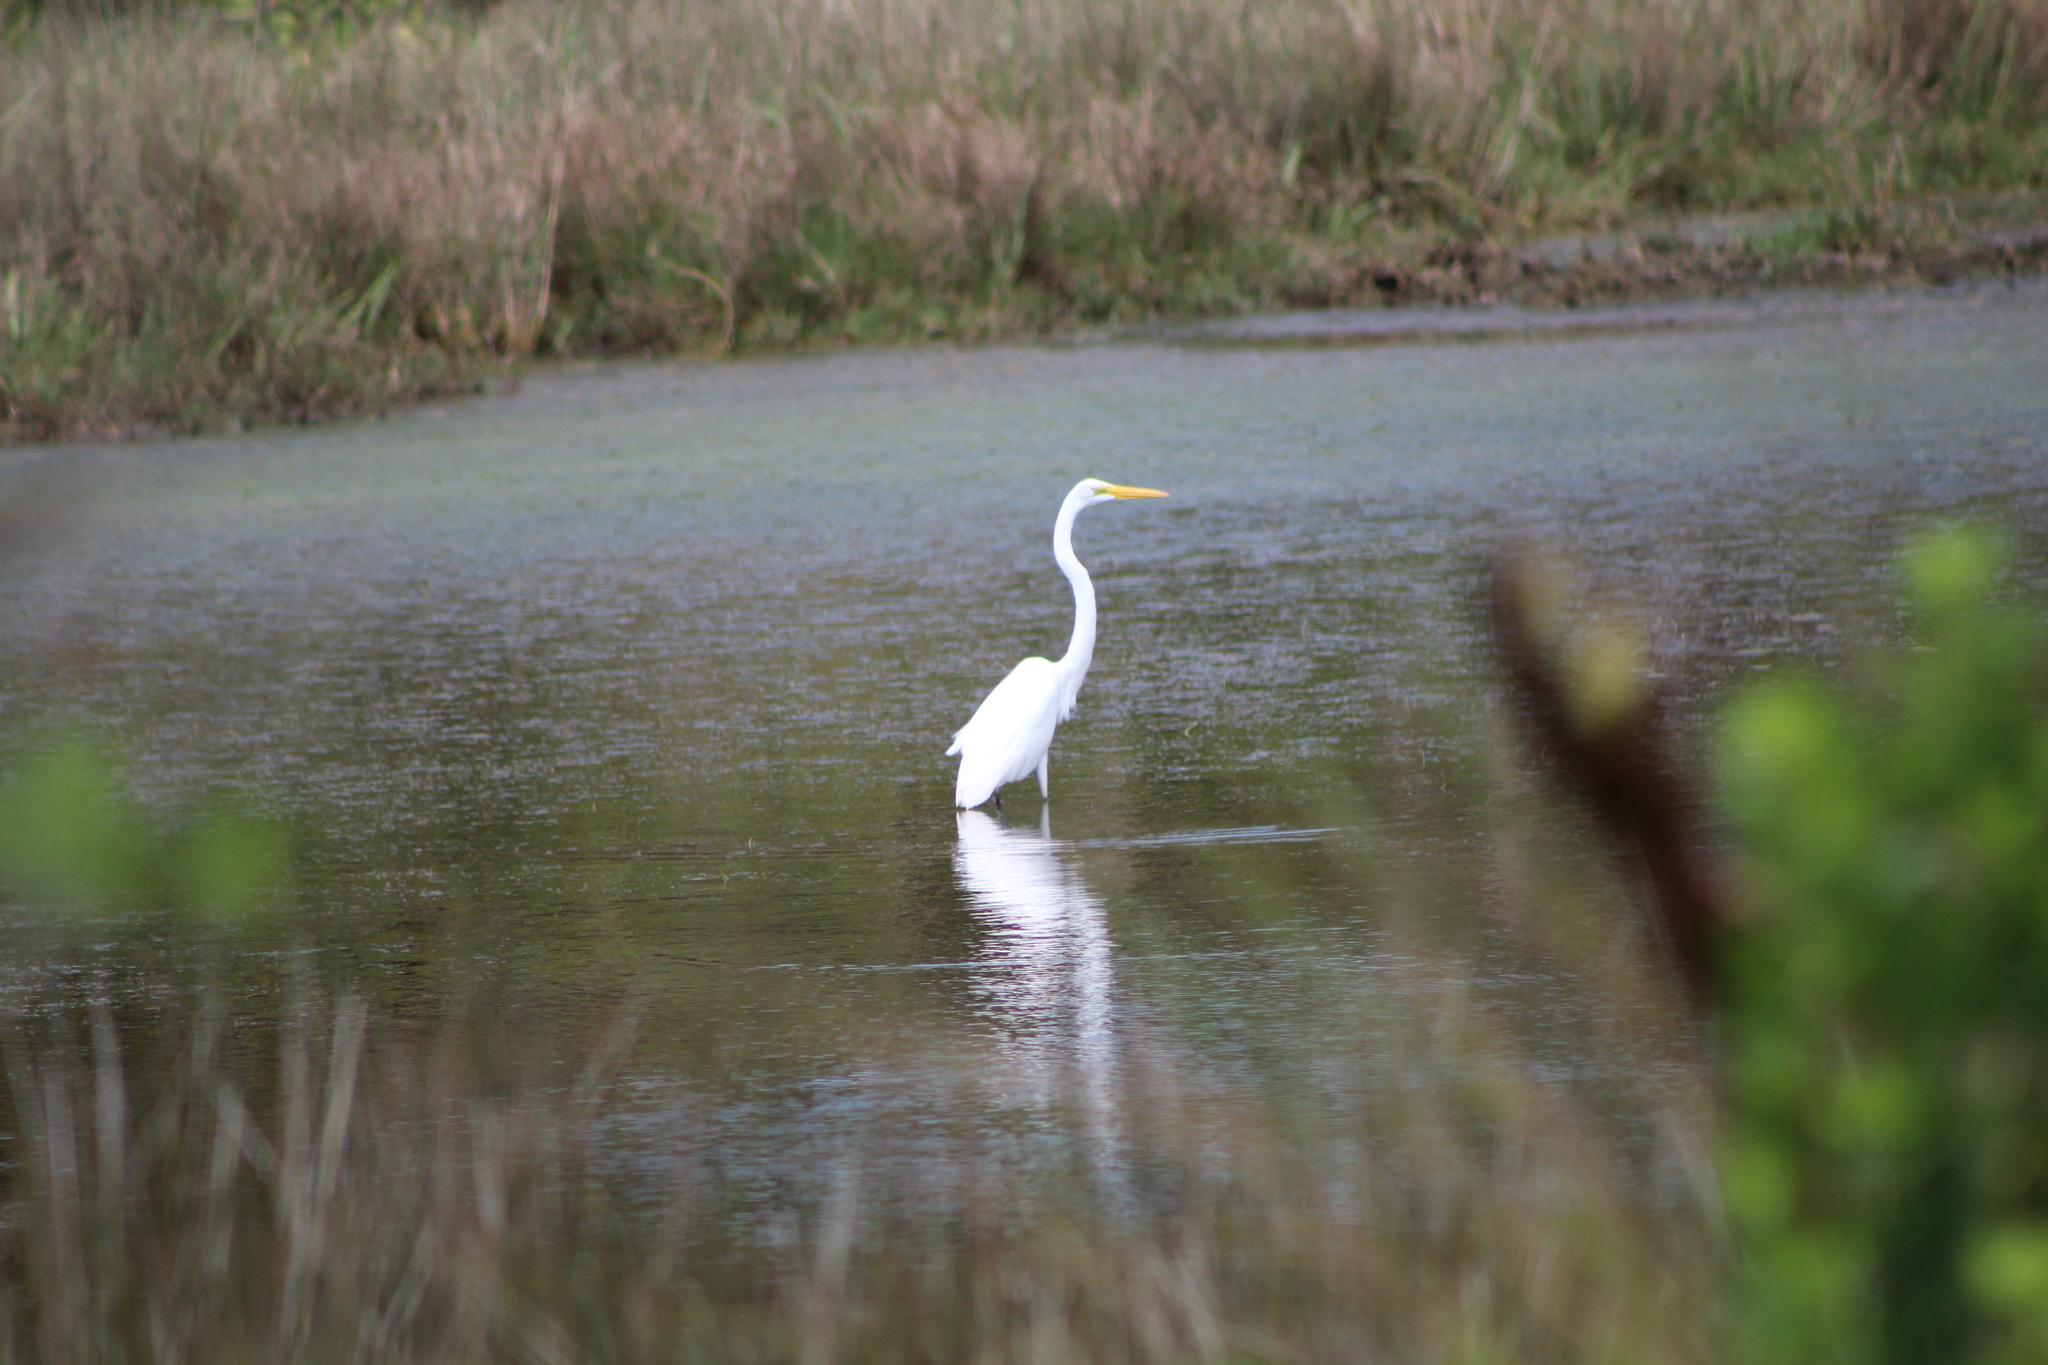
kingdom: Animalia
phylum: Chordata
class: Aves
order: Pelecaniformes
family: Ardeidae
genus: Ardea
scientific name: Ardea alba
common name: Great egret
